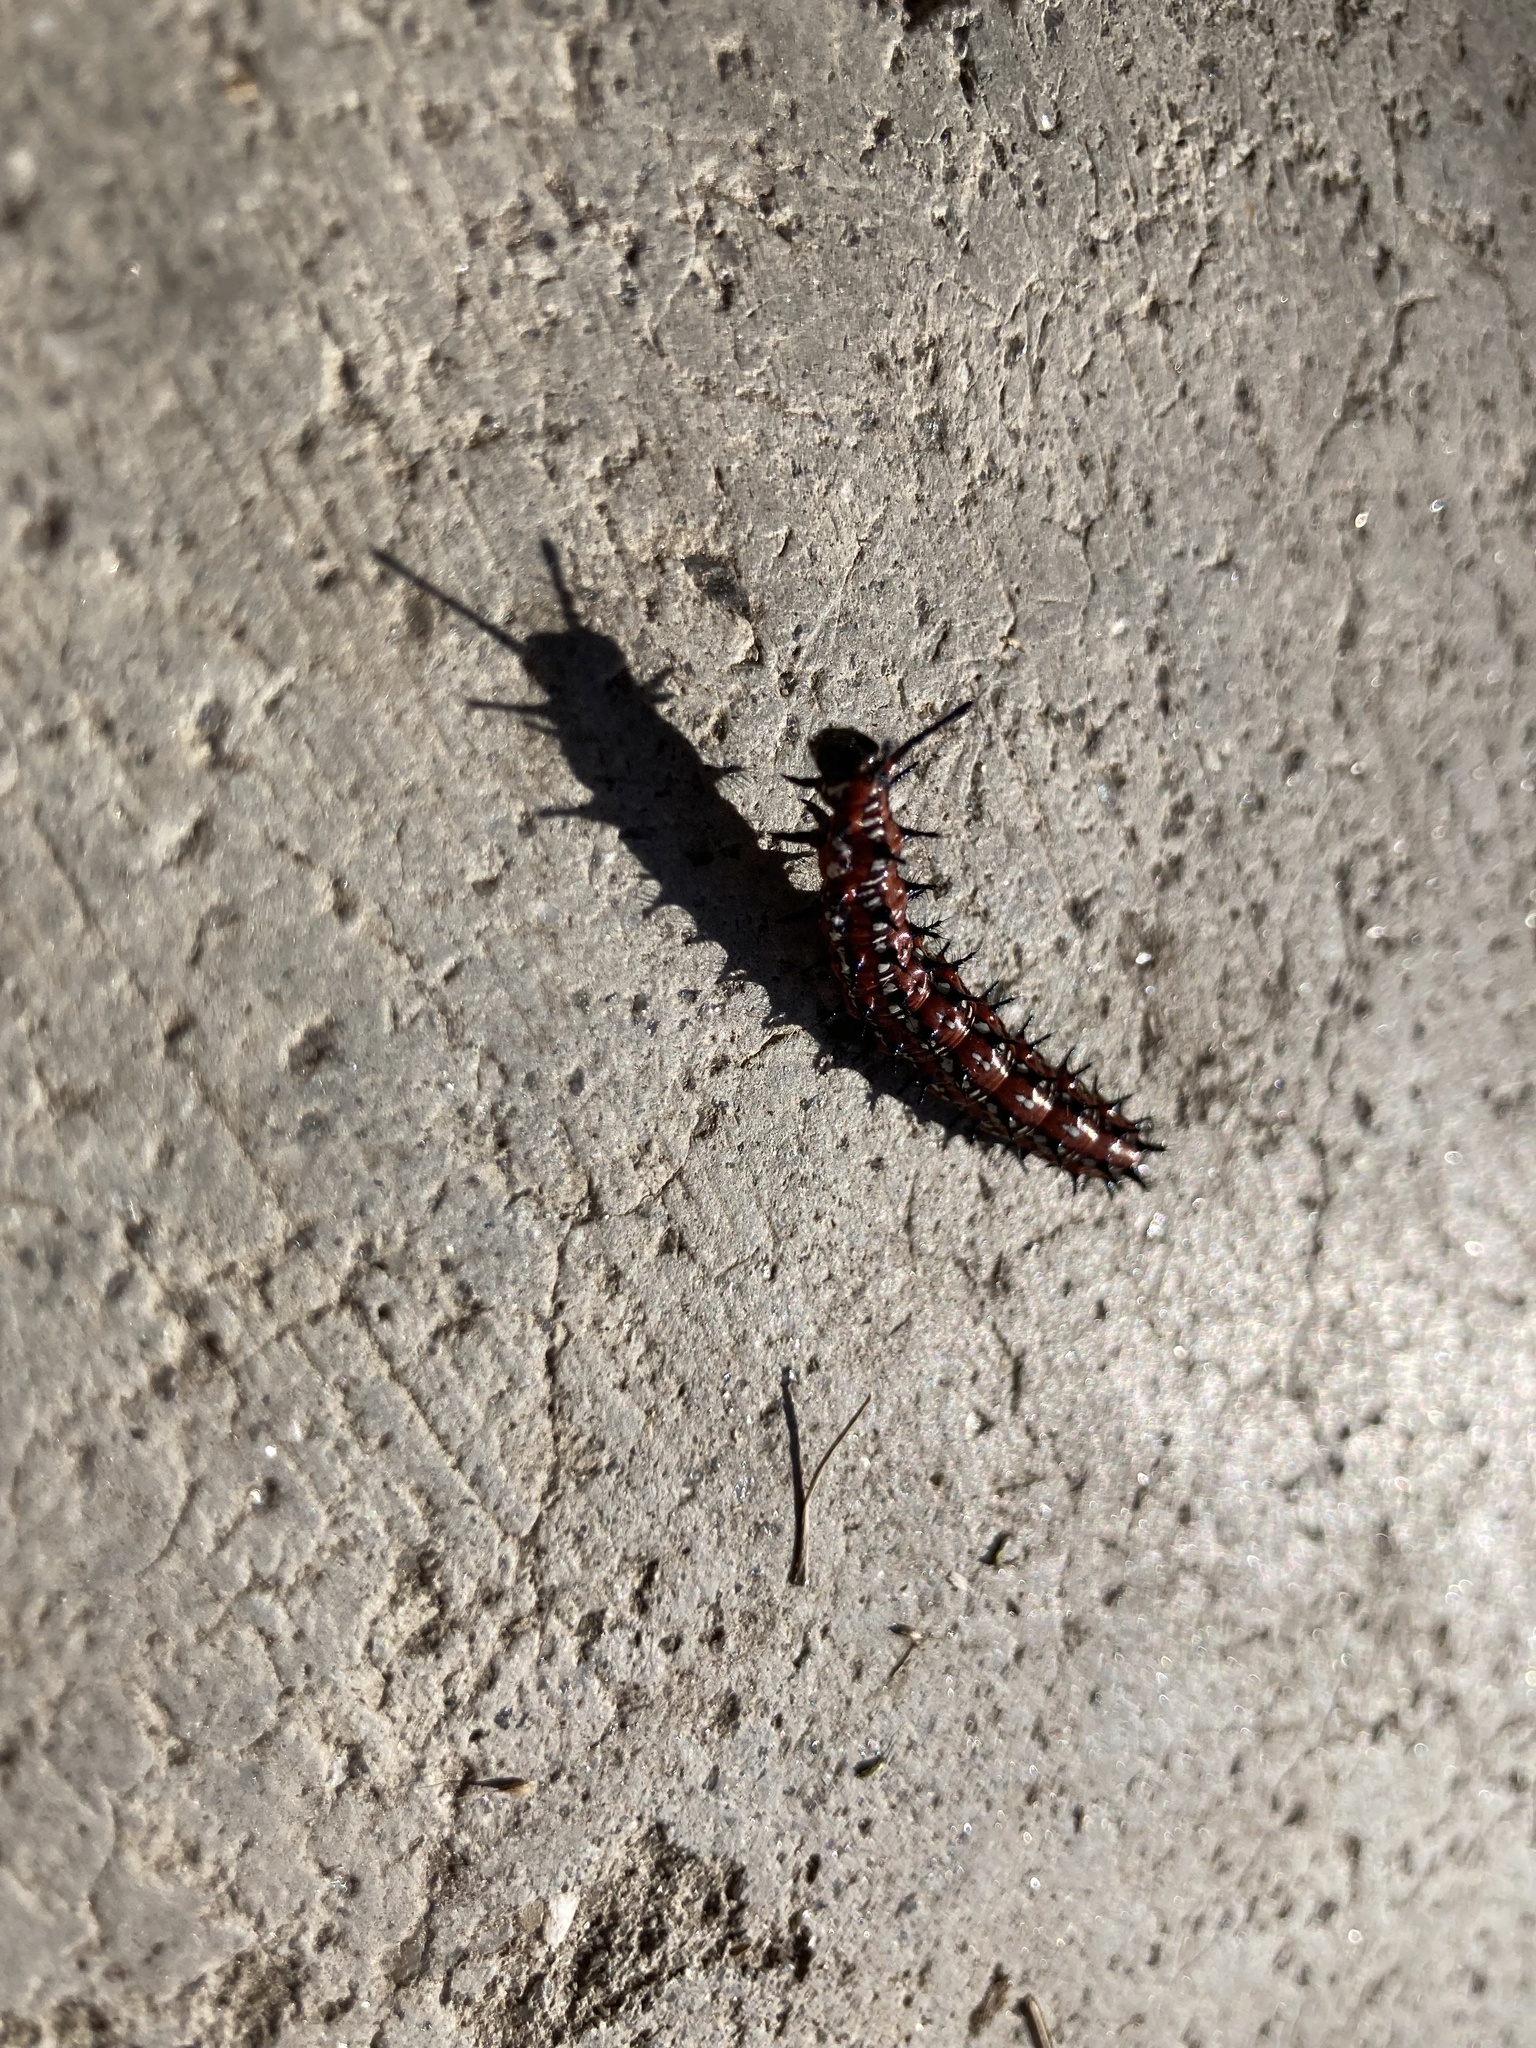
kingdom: Animalia
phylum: Arthropoda
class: Insecta
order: Lepidoptera
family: Nymphalidae
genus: Euptoieta
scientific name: Euptoieta claudia
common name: Variegated fritillary
